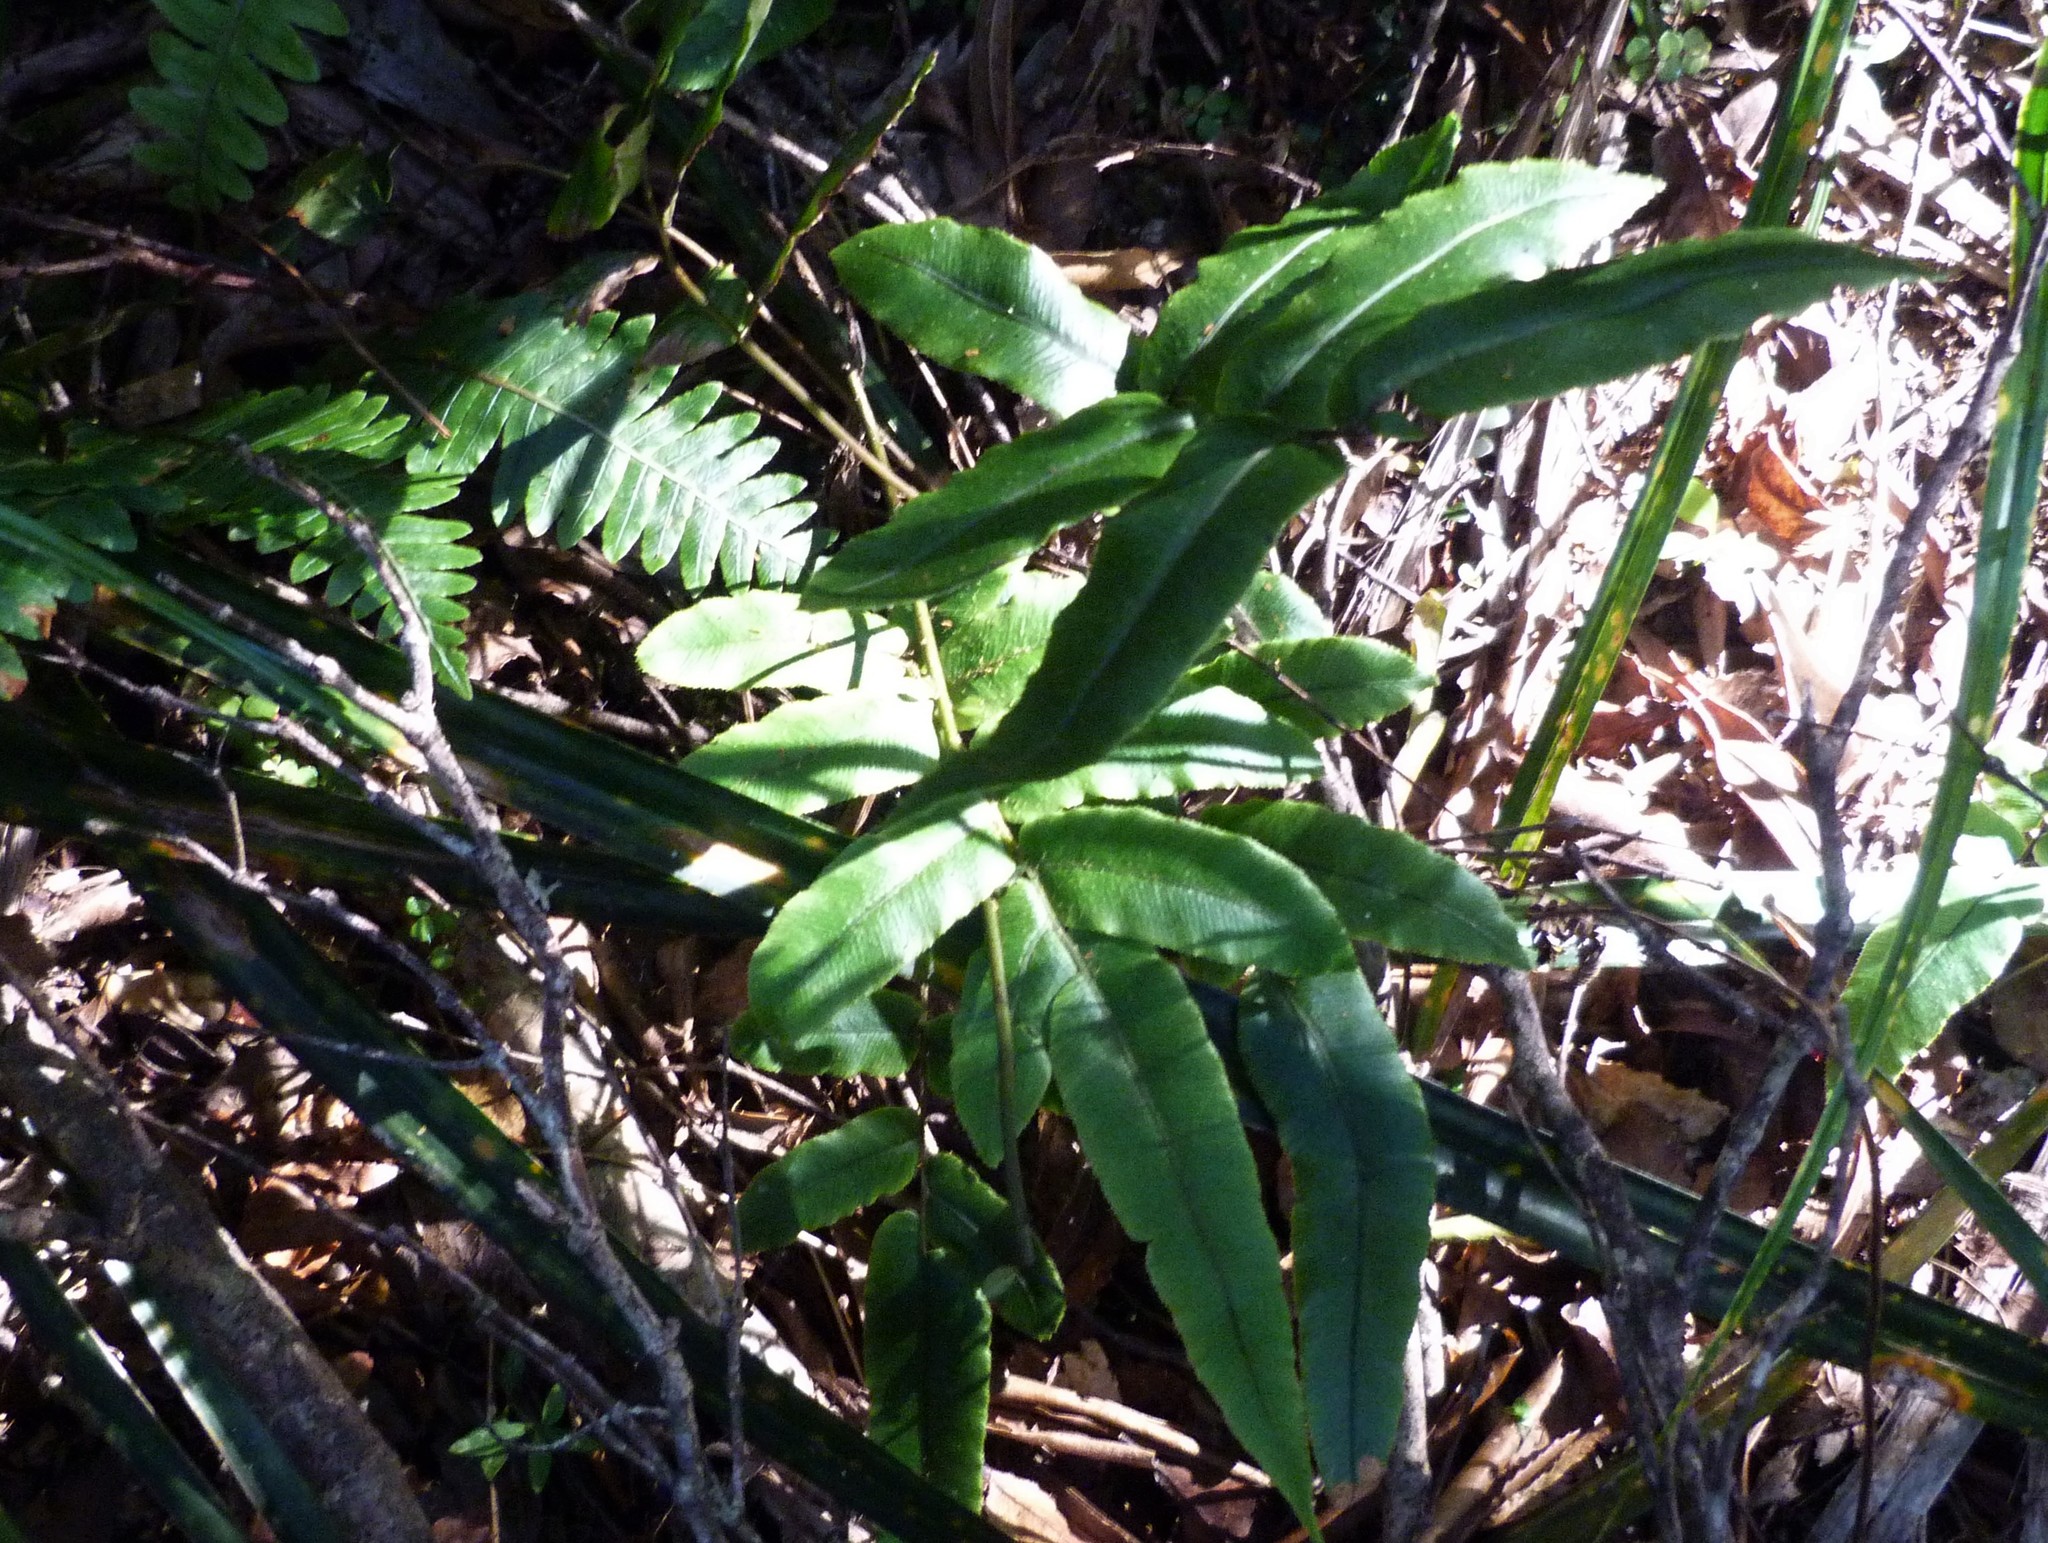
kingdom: Plantae
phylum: Tracheophyta
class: Polypodiopsida
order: Polypodiales
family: Blechnaceae
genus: Parablechnum
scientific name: Parablechnum procerum
